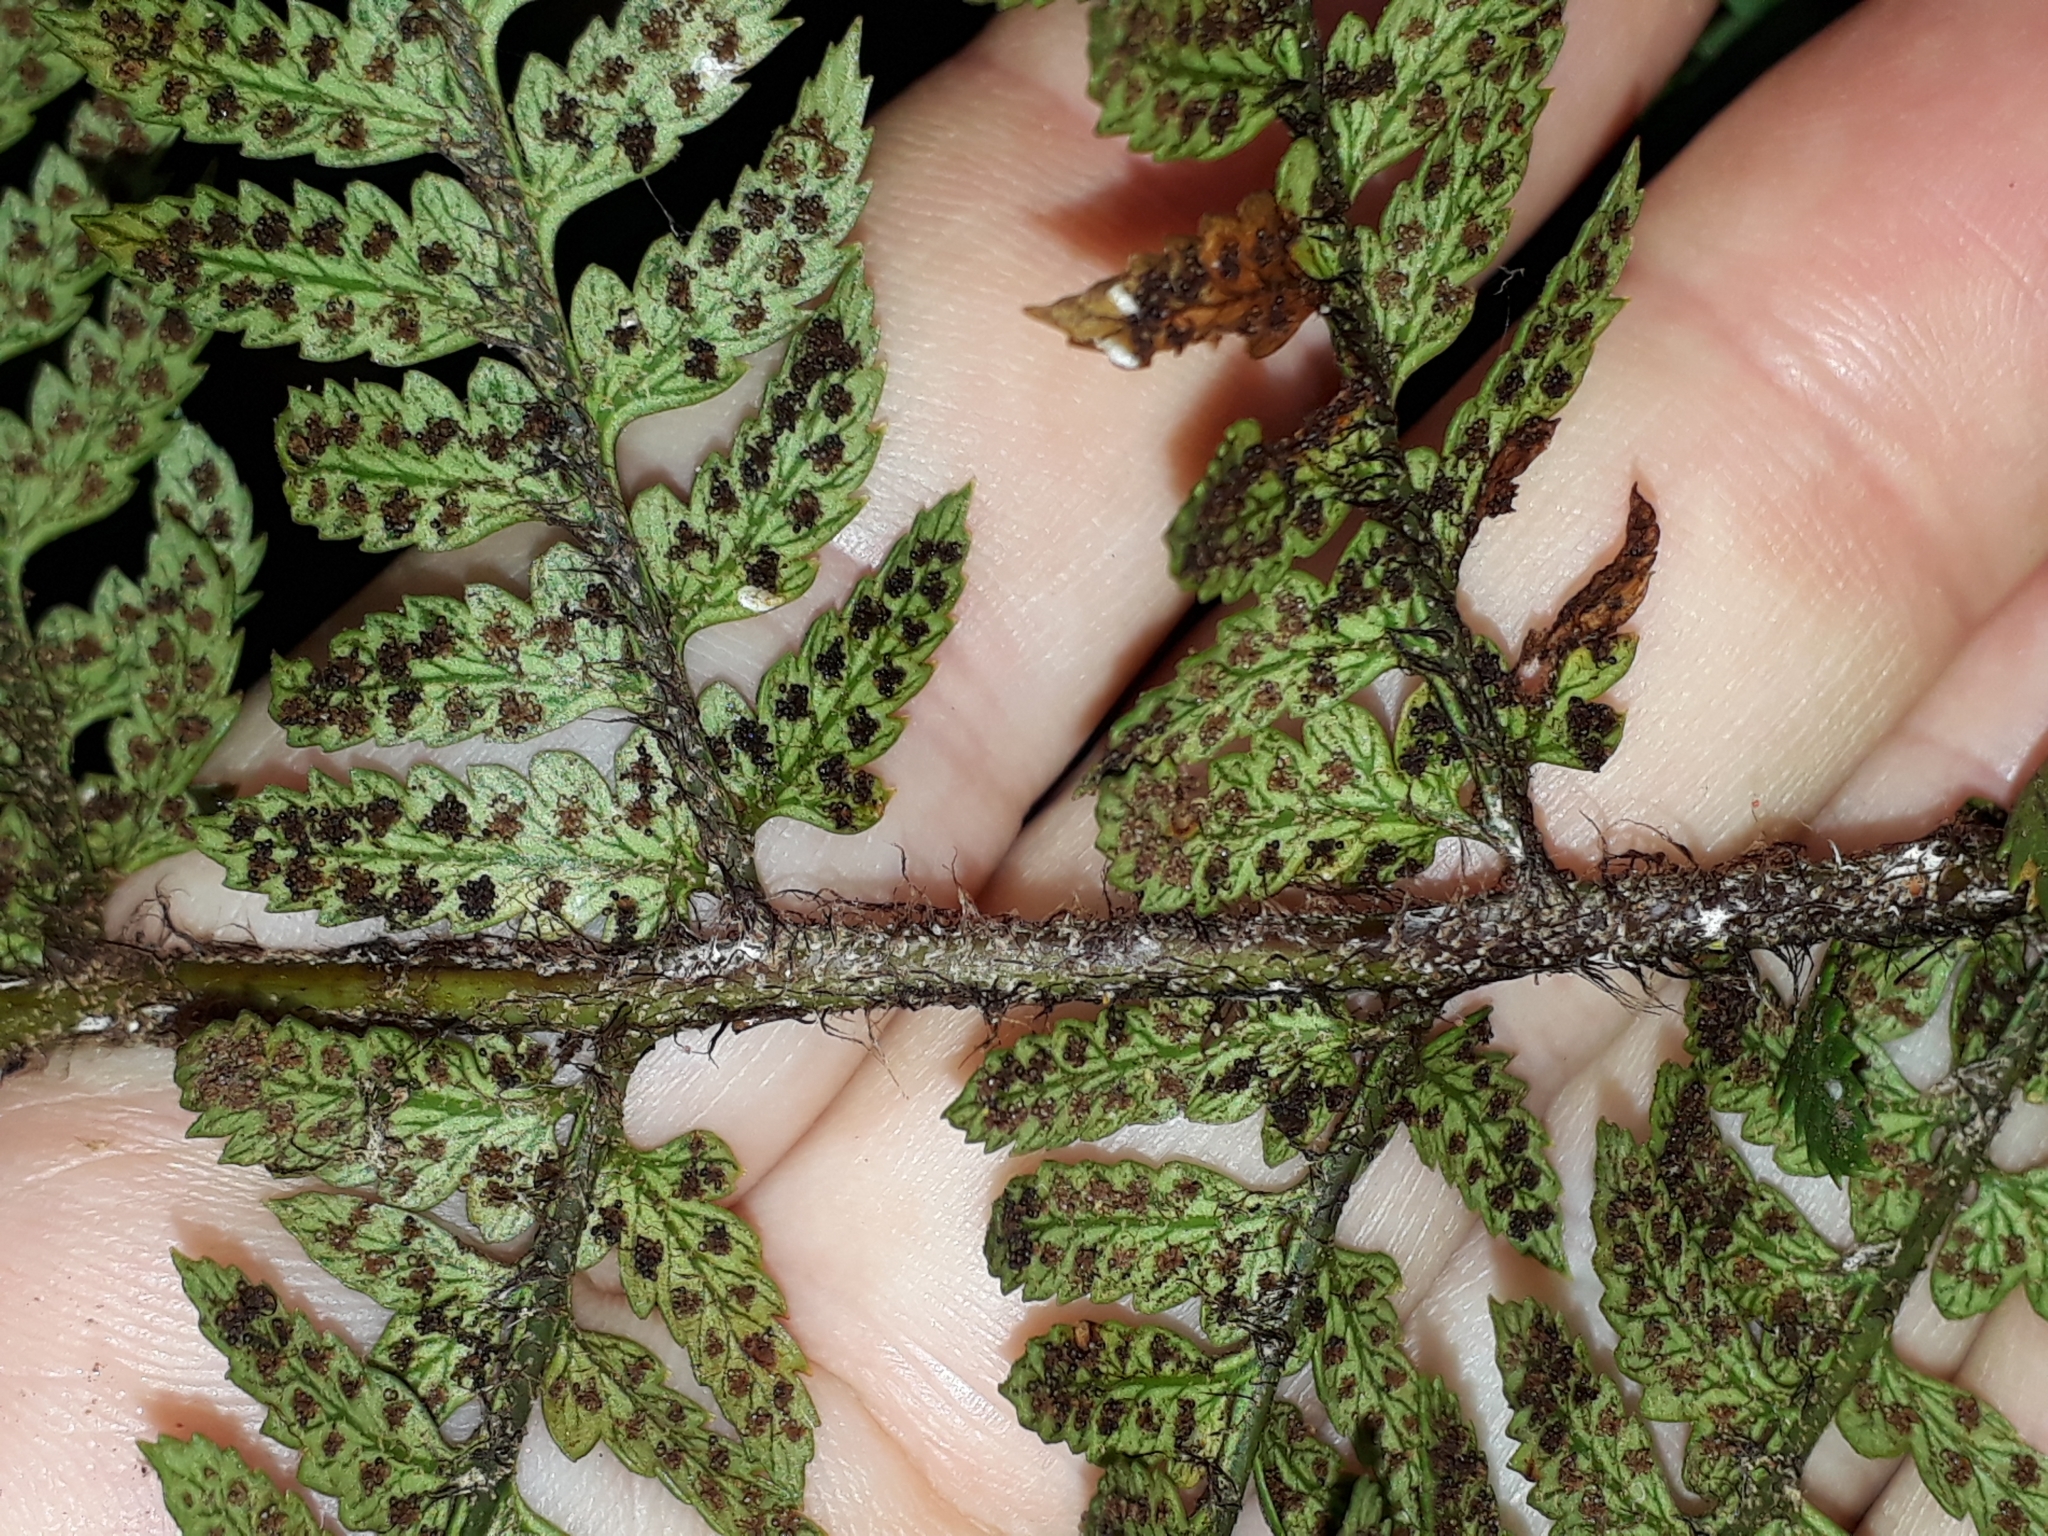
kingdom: Plantae
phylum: Tracheophyta
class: Polypodiopsida
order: Polypodiales
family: Dryopteridaceae
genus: Polystichum
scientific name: Polystichum wawranum
